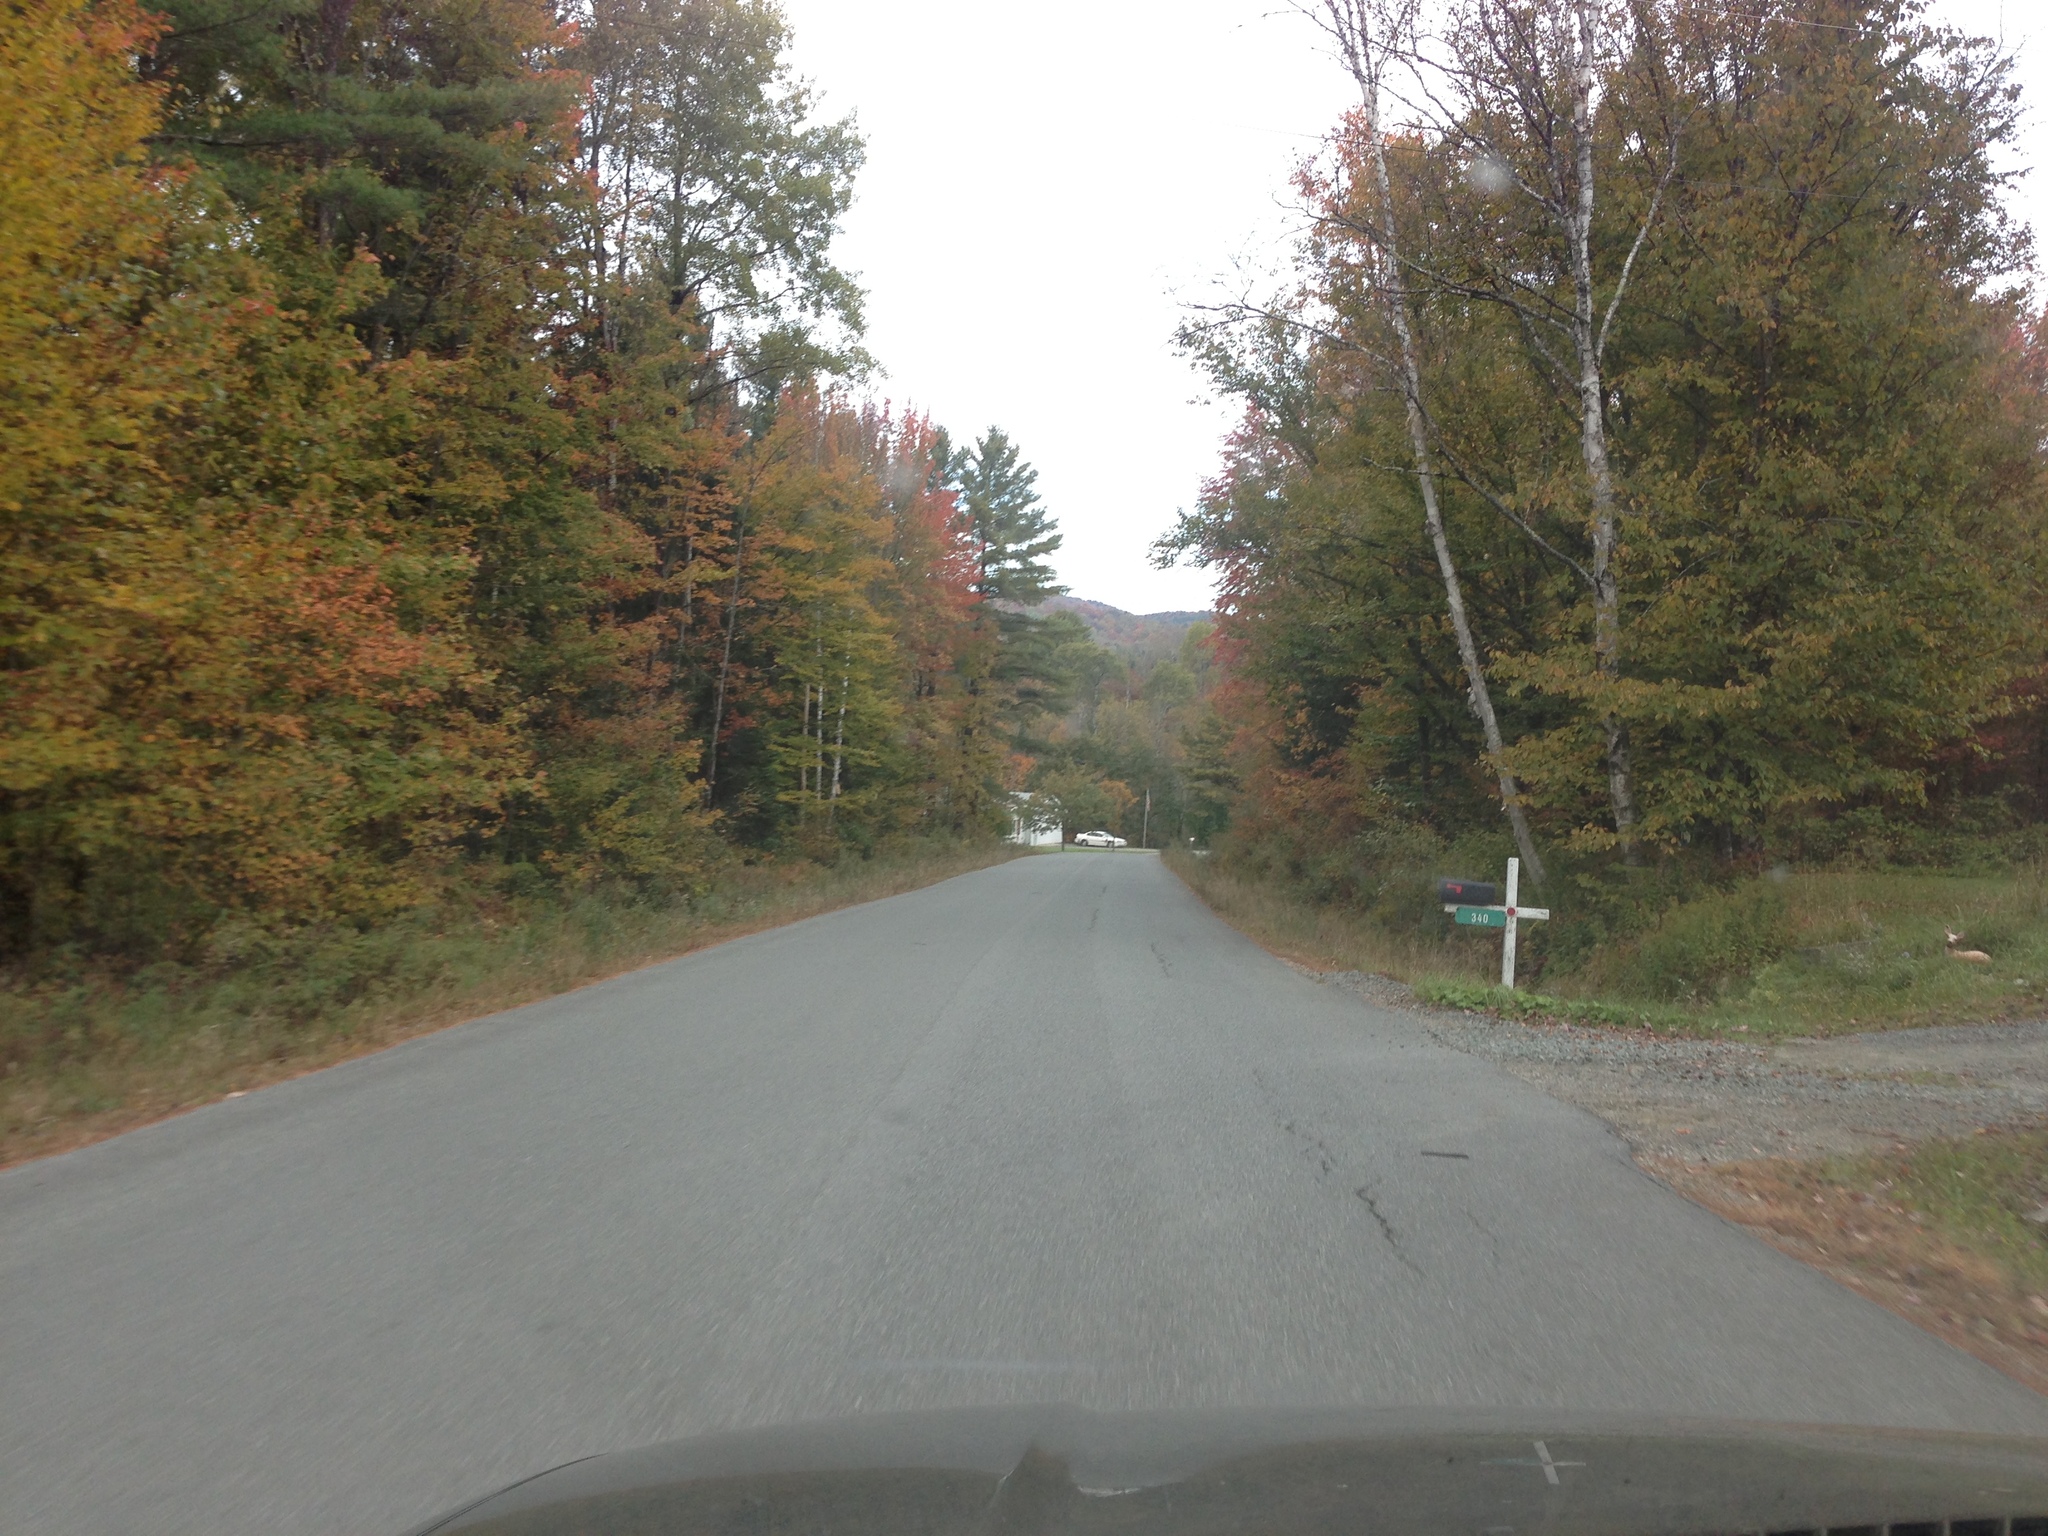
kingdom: Plantae
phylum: Tracheophyta
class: Magnoliopsida
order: Fagales
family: Betulaceae
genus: Betula
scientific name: Betula papyrifera
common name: Paper birch
